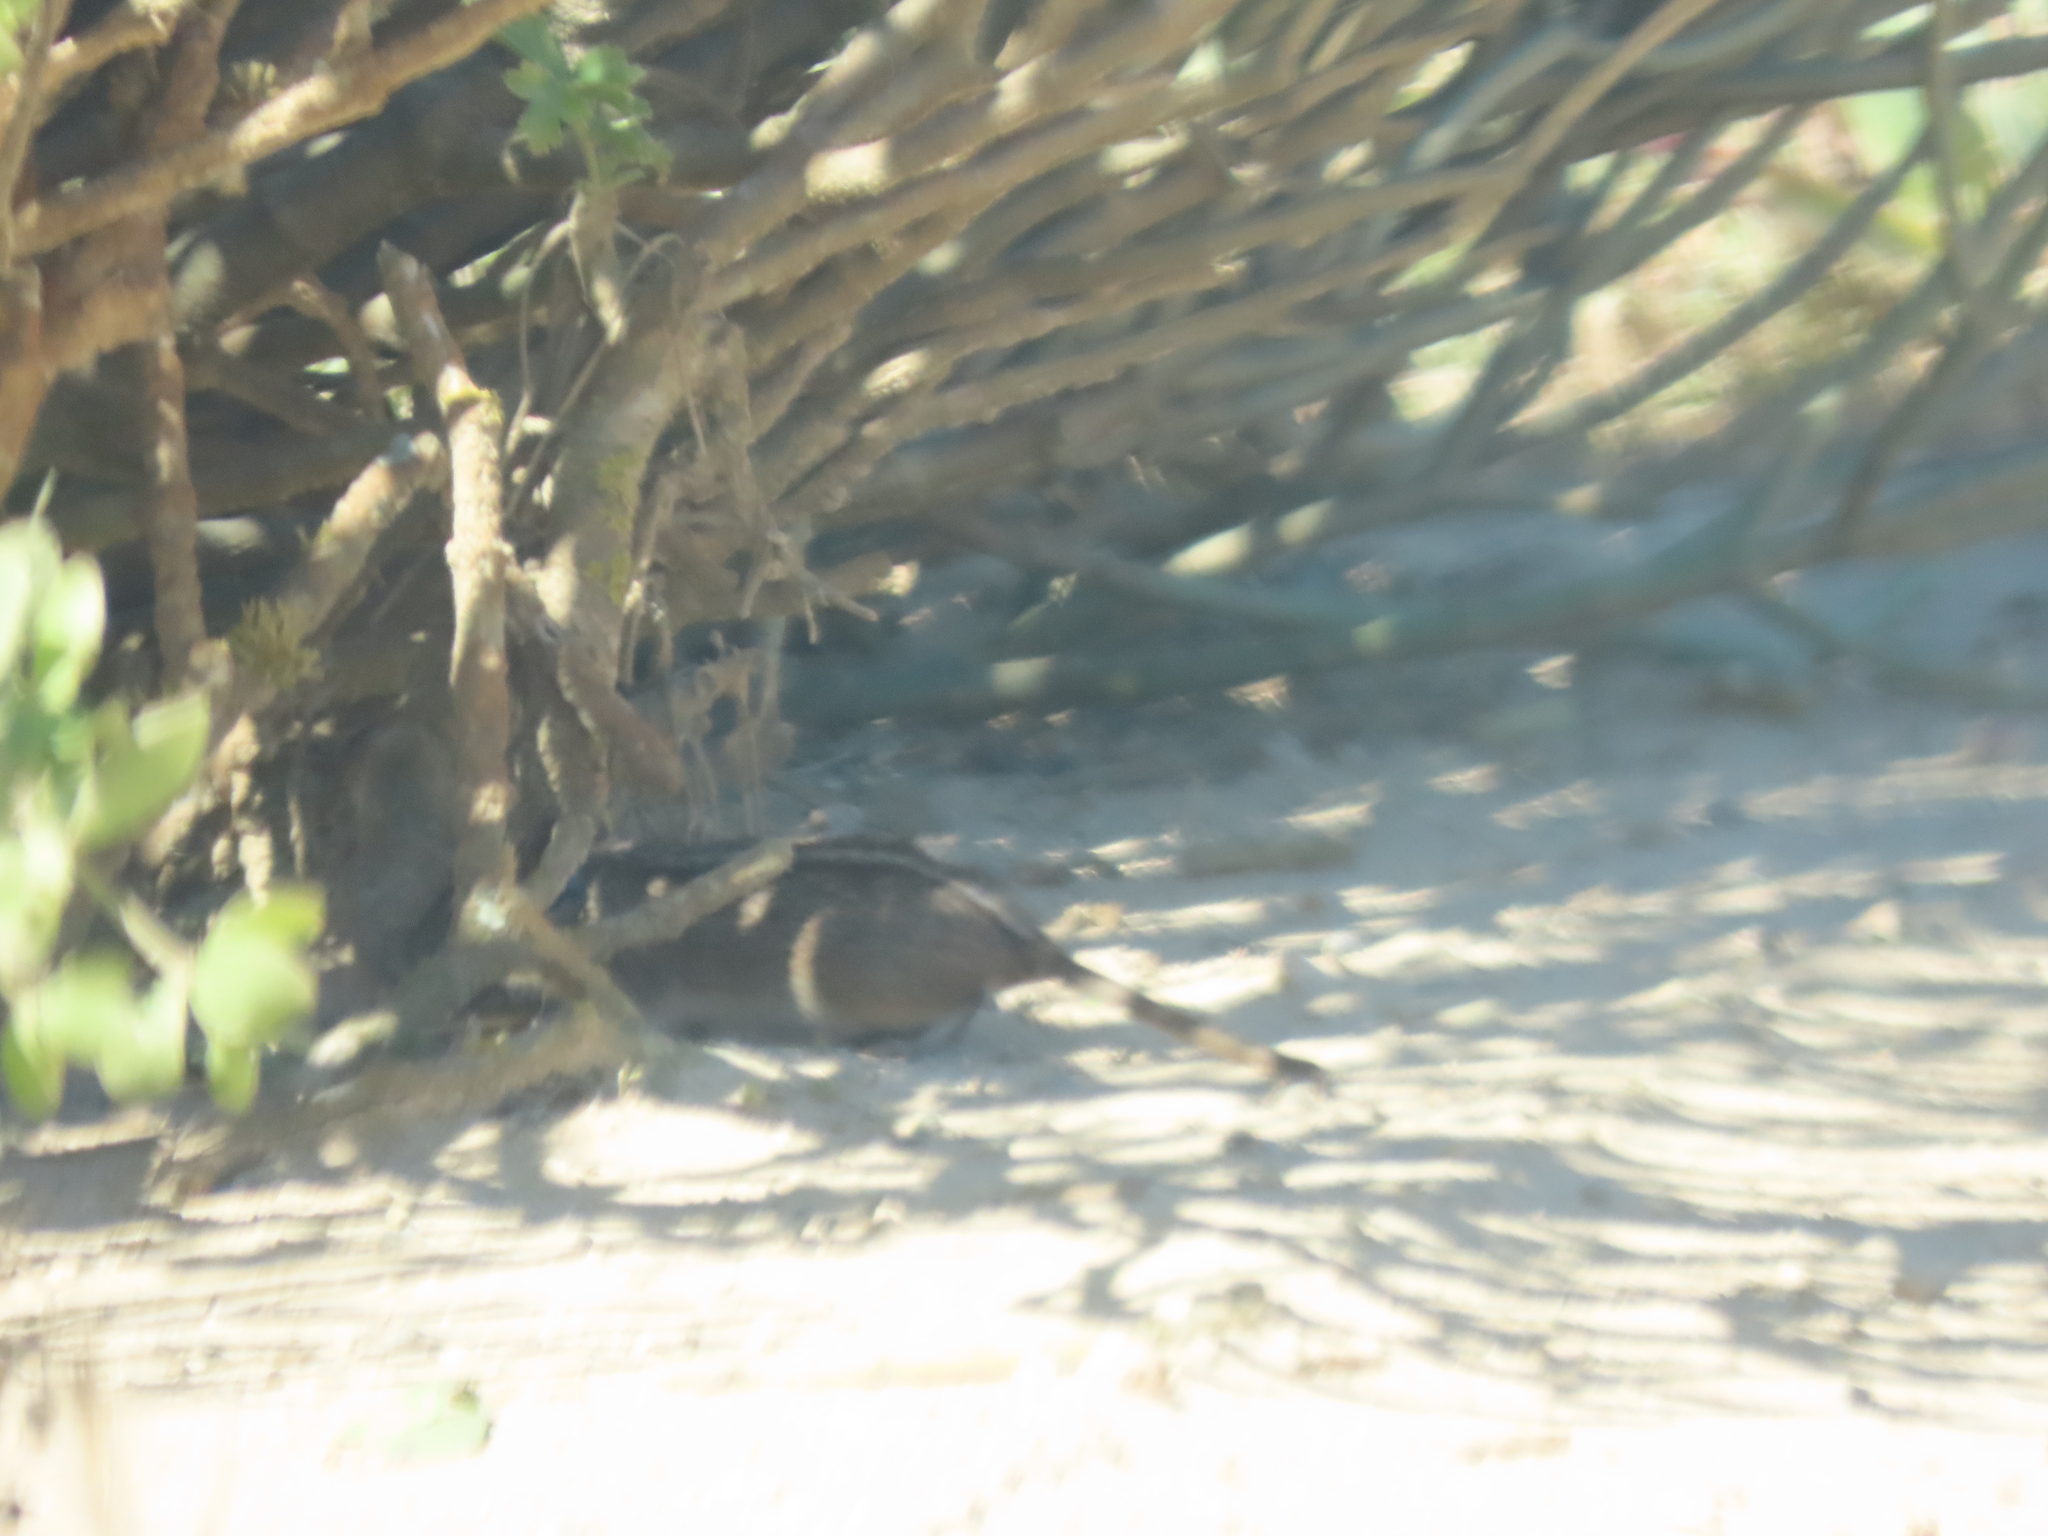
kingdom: Animalia
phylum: Chordata
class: Mammalia
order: Rodentia
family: Muridae
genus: Rhabdomys
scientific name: Rhabdomys pumilio
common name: Xeric four-striped grass rat
